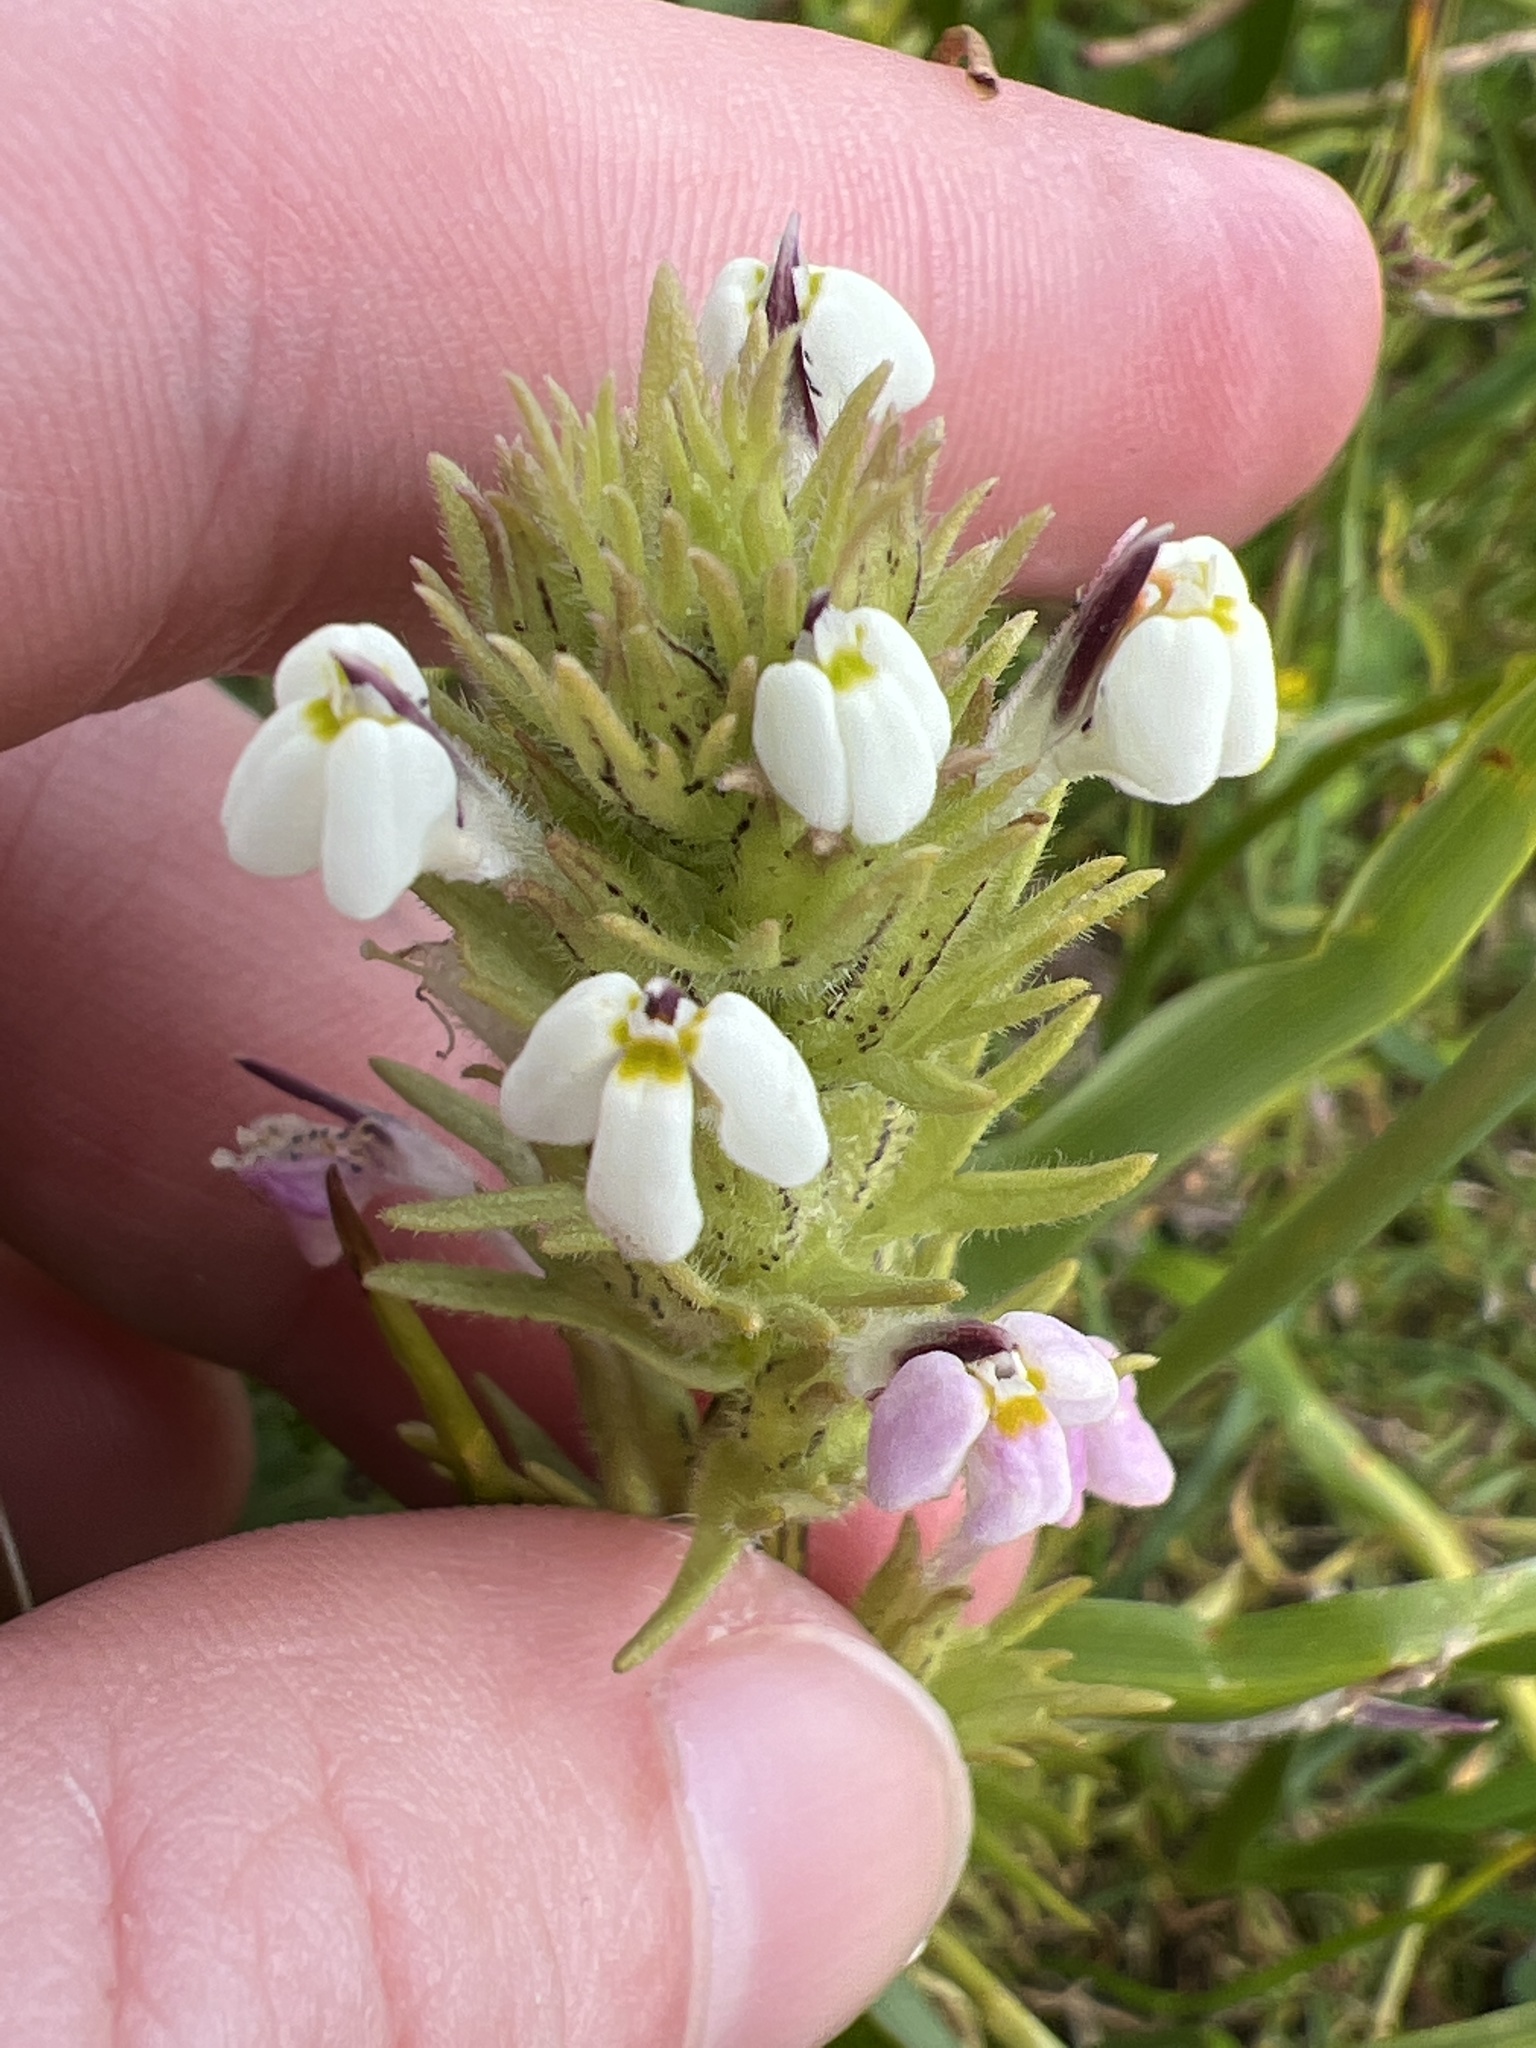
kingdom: Plantae
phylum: Tracheophyta
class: Magnoliopsida
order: Lamiales
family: Orobanchaceae
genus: Triphysaria
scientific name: Triphysaria versicolor
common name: Bearded false owl-clover
